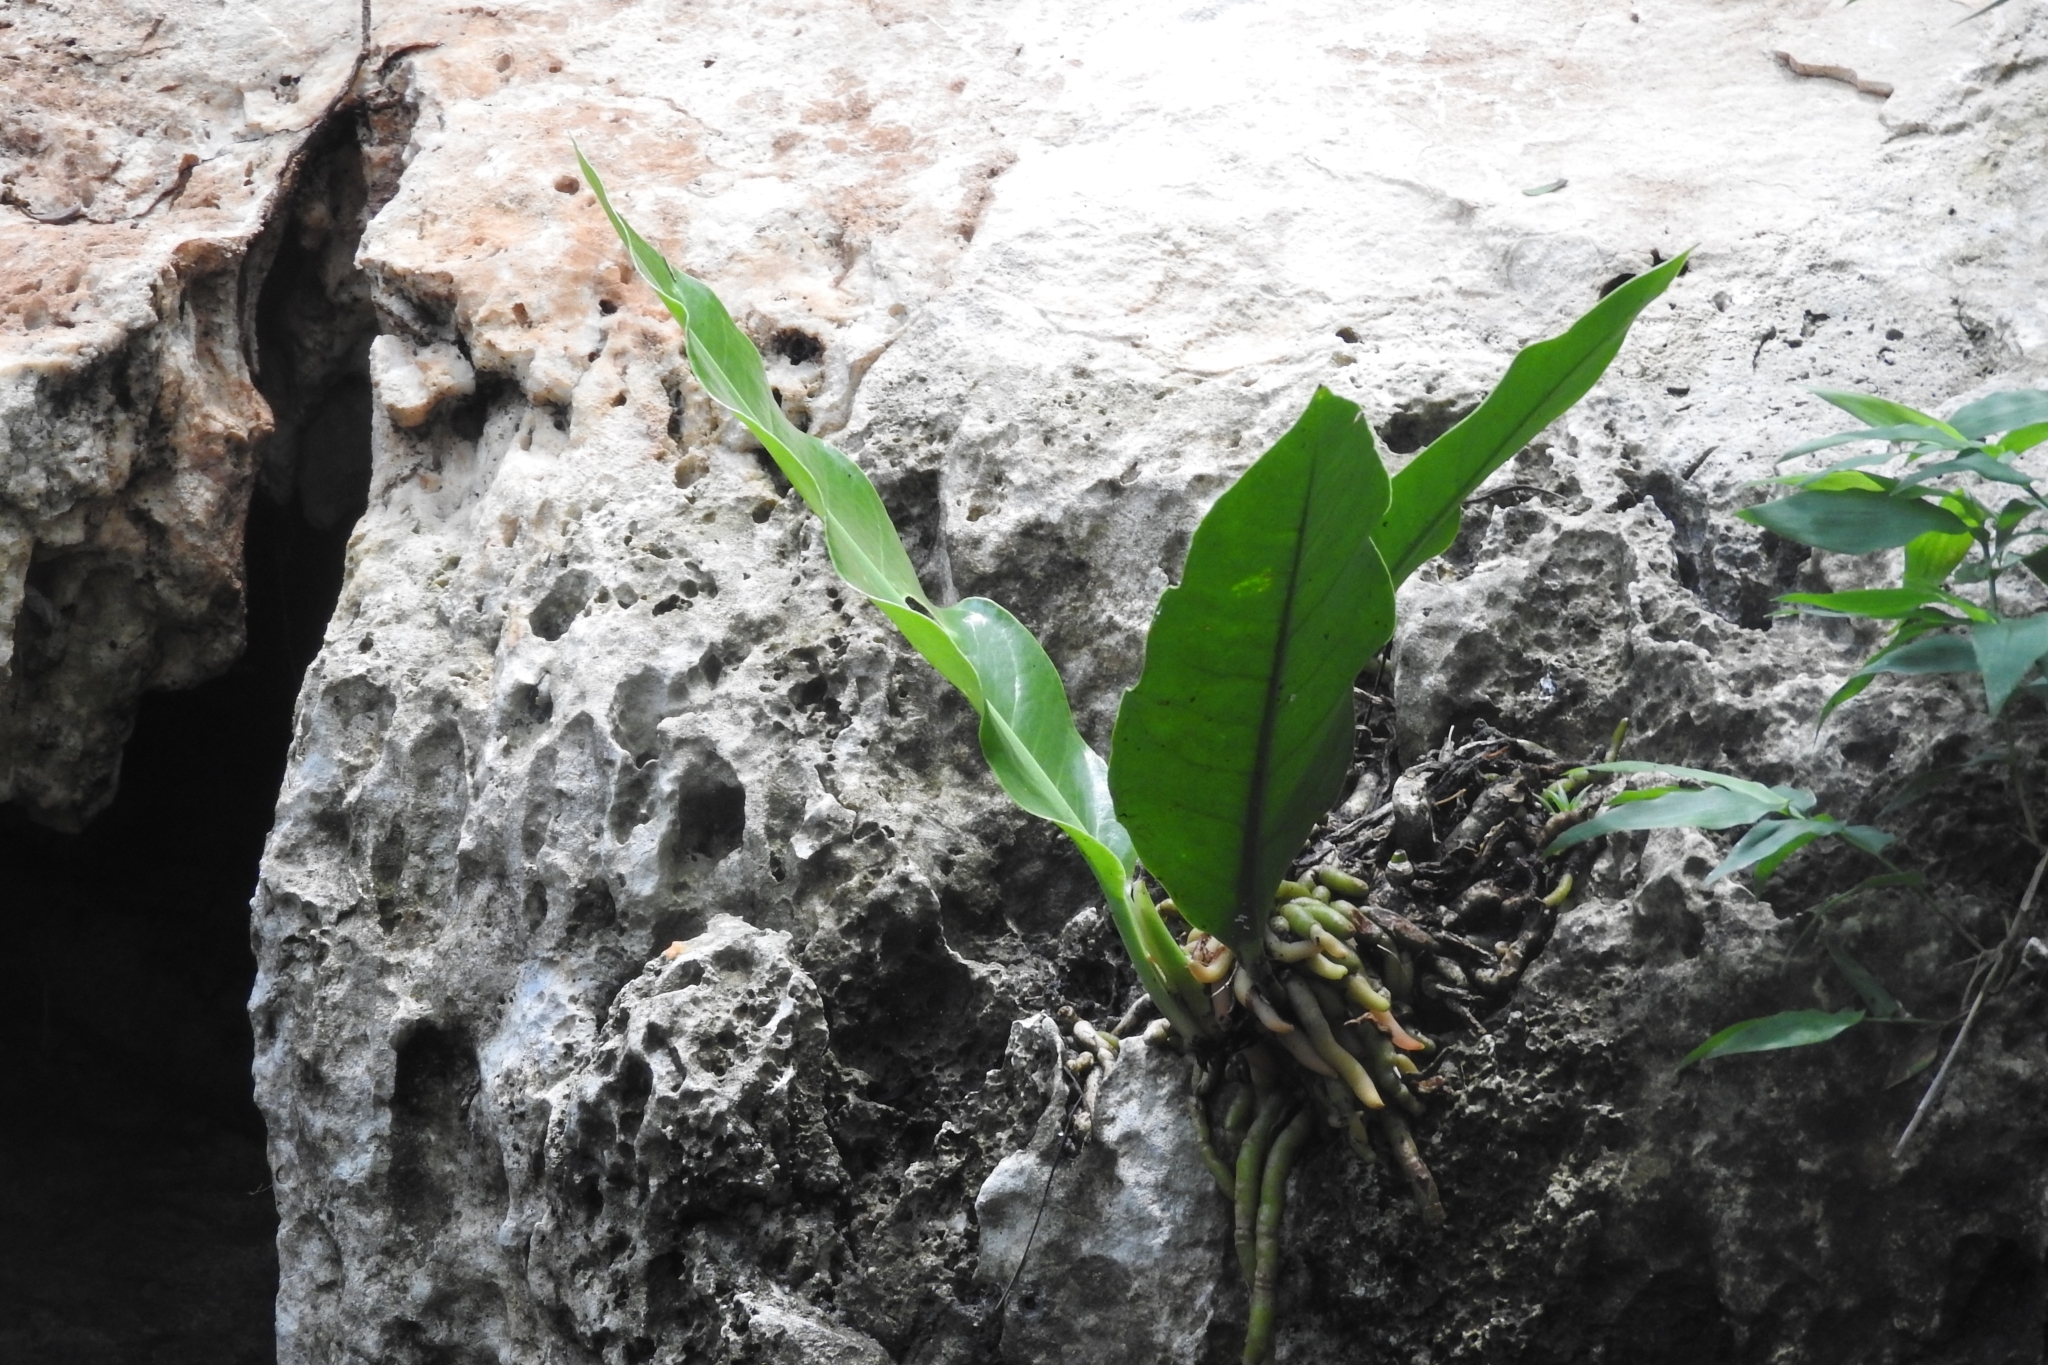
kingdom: Plantae
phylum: Tracheophyta
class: Liliopsida
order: Alismatales
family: Araceae
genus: Anthurium
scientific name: Anthurium schlechtendalii
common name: Laceleaf
